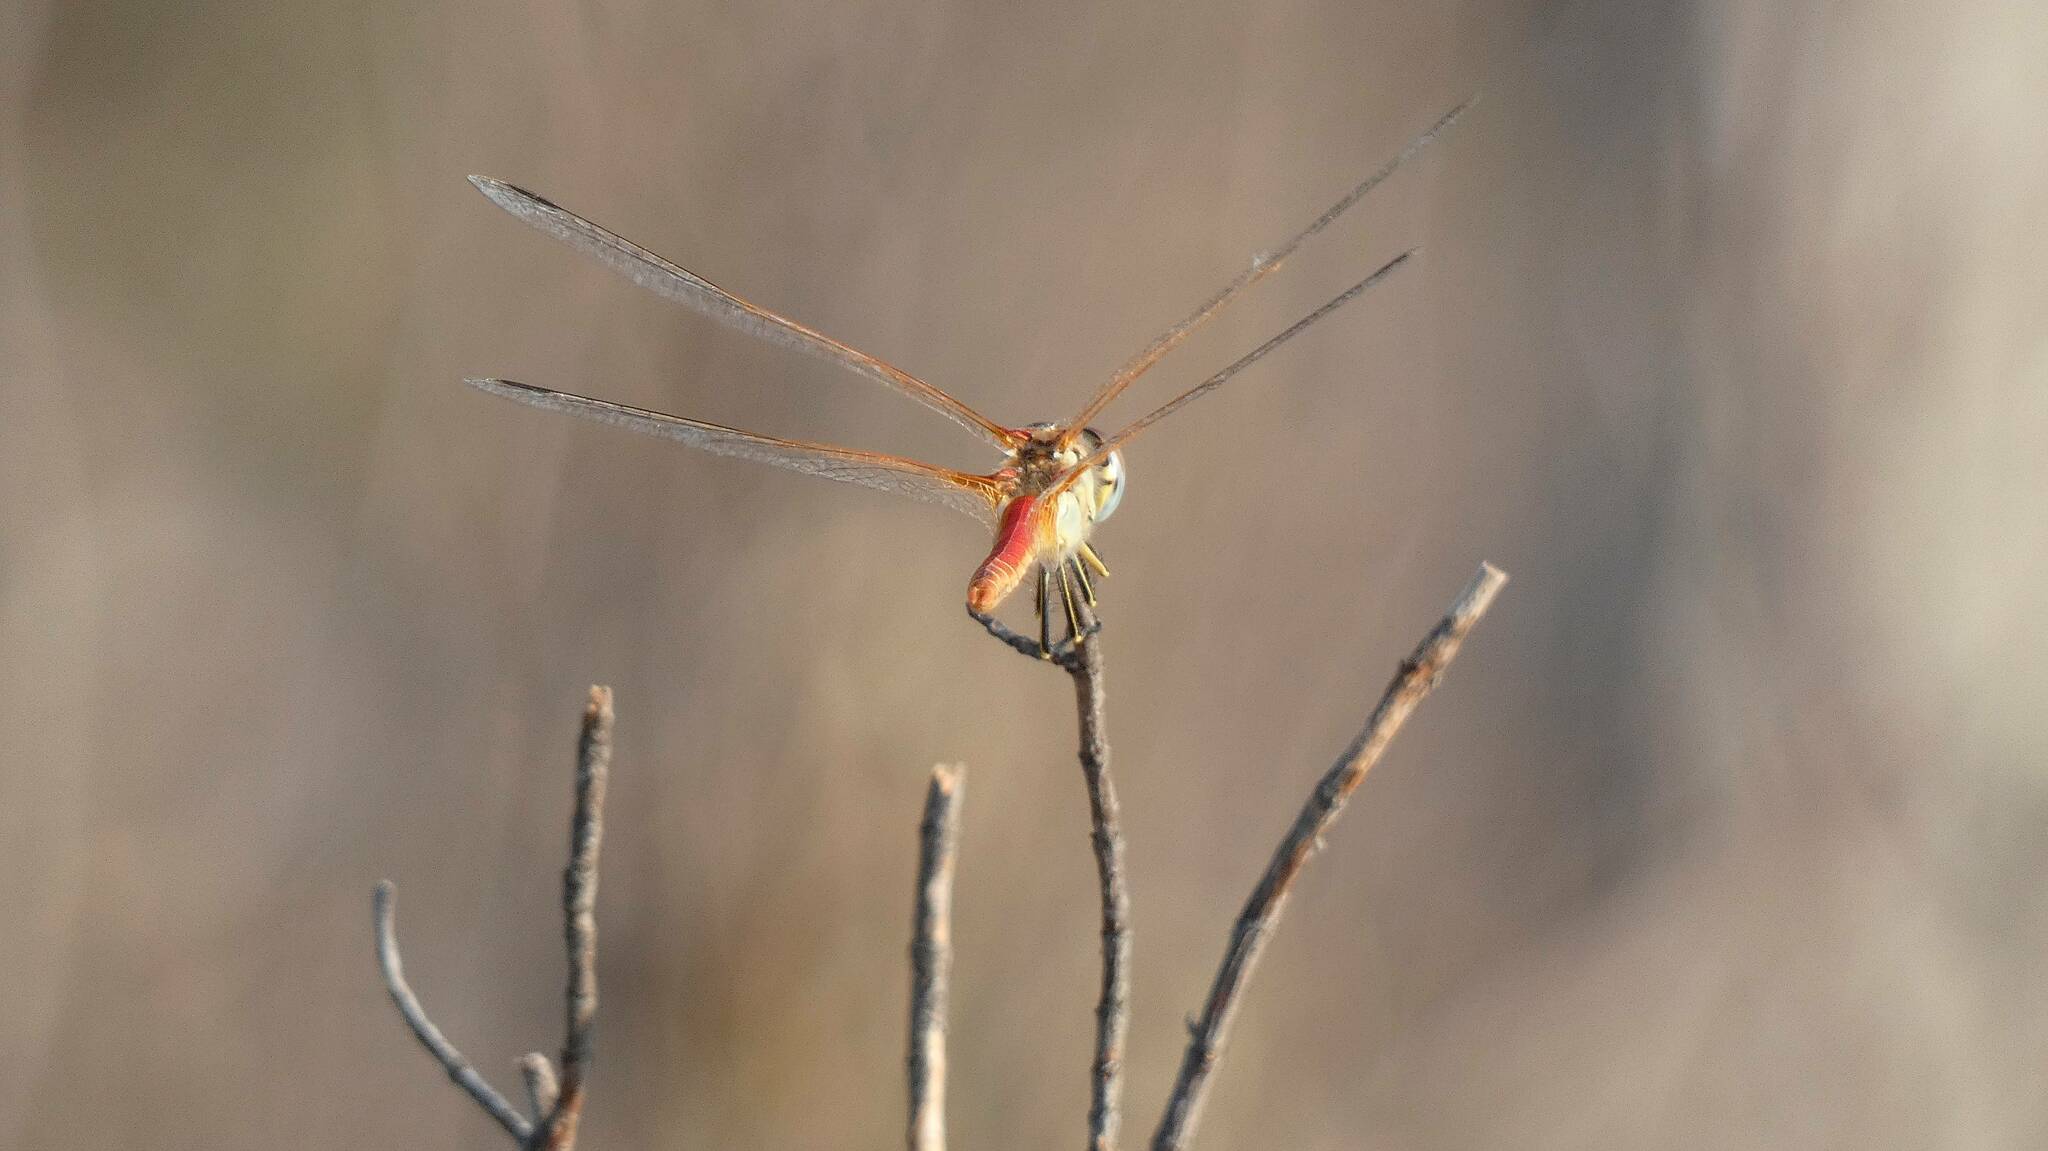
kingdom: Animalia
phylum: Arthropoda
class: Insecta
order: Odonata
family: Libellulidae
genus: Sympetrum
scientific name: Sympetrum fonscolombii
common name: Red-veined darter
